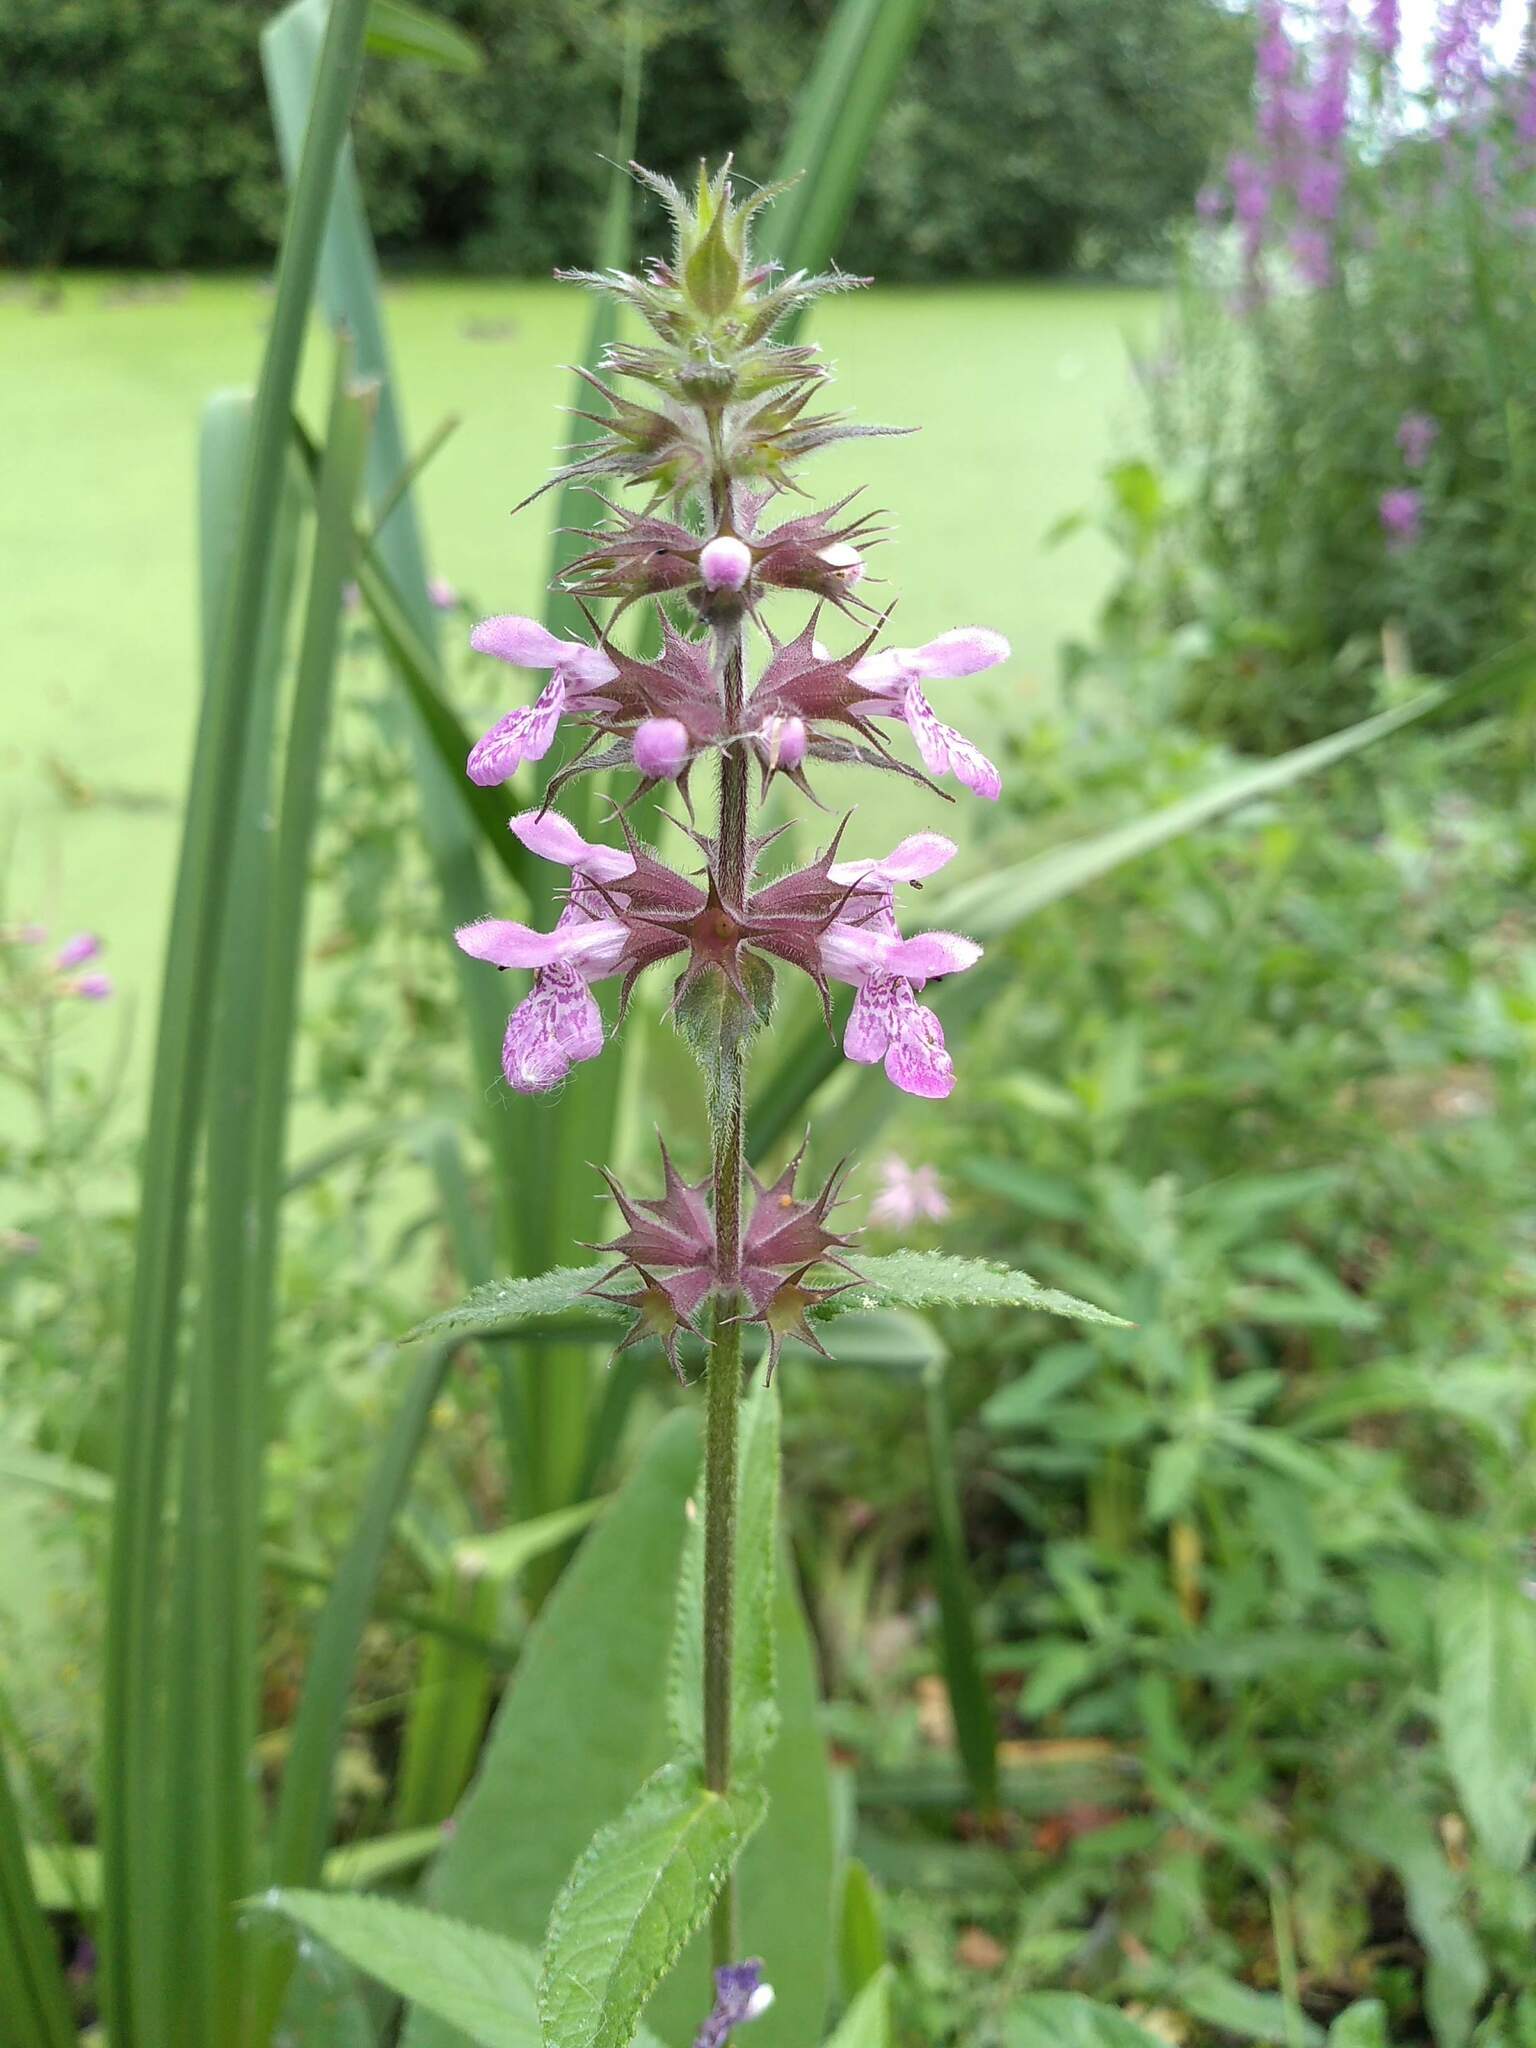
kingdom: Plantae
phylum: Tracheophyta
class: Magnoliopsida
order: Lamiales
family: Lamiaceae
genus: Stachys
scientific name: Stachys palustris
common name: Marsh woundwort
